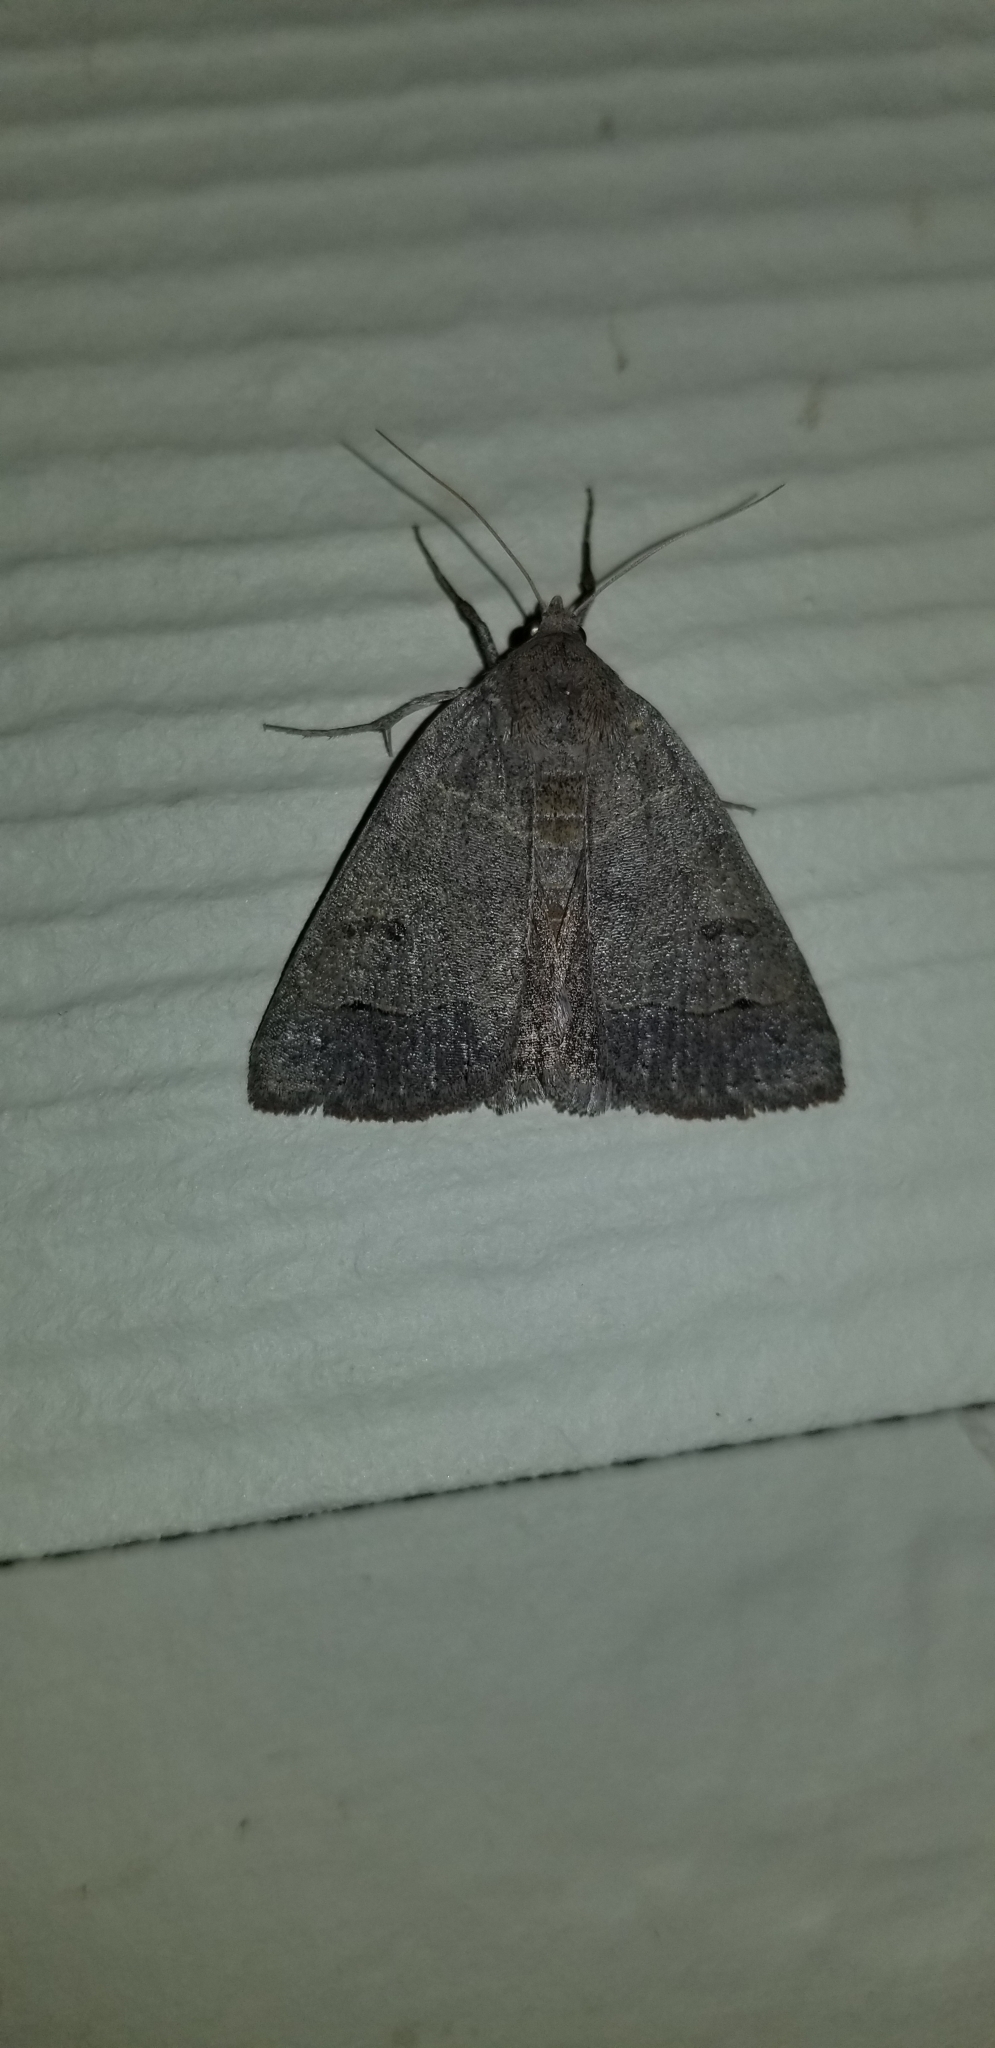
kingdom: Animalia
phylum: Arthropoda
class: Insecta
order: Lepidoptera
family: Erebidae
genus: Phoberia
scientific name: Phoberia atomaris
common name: Common oak moth
